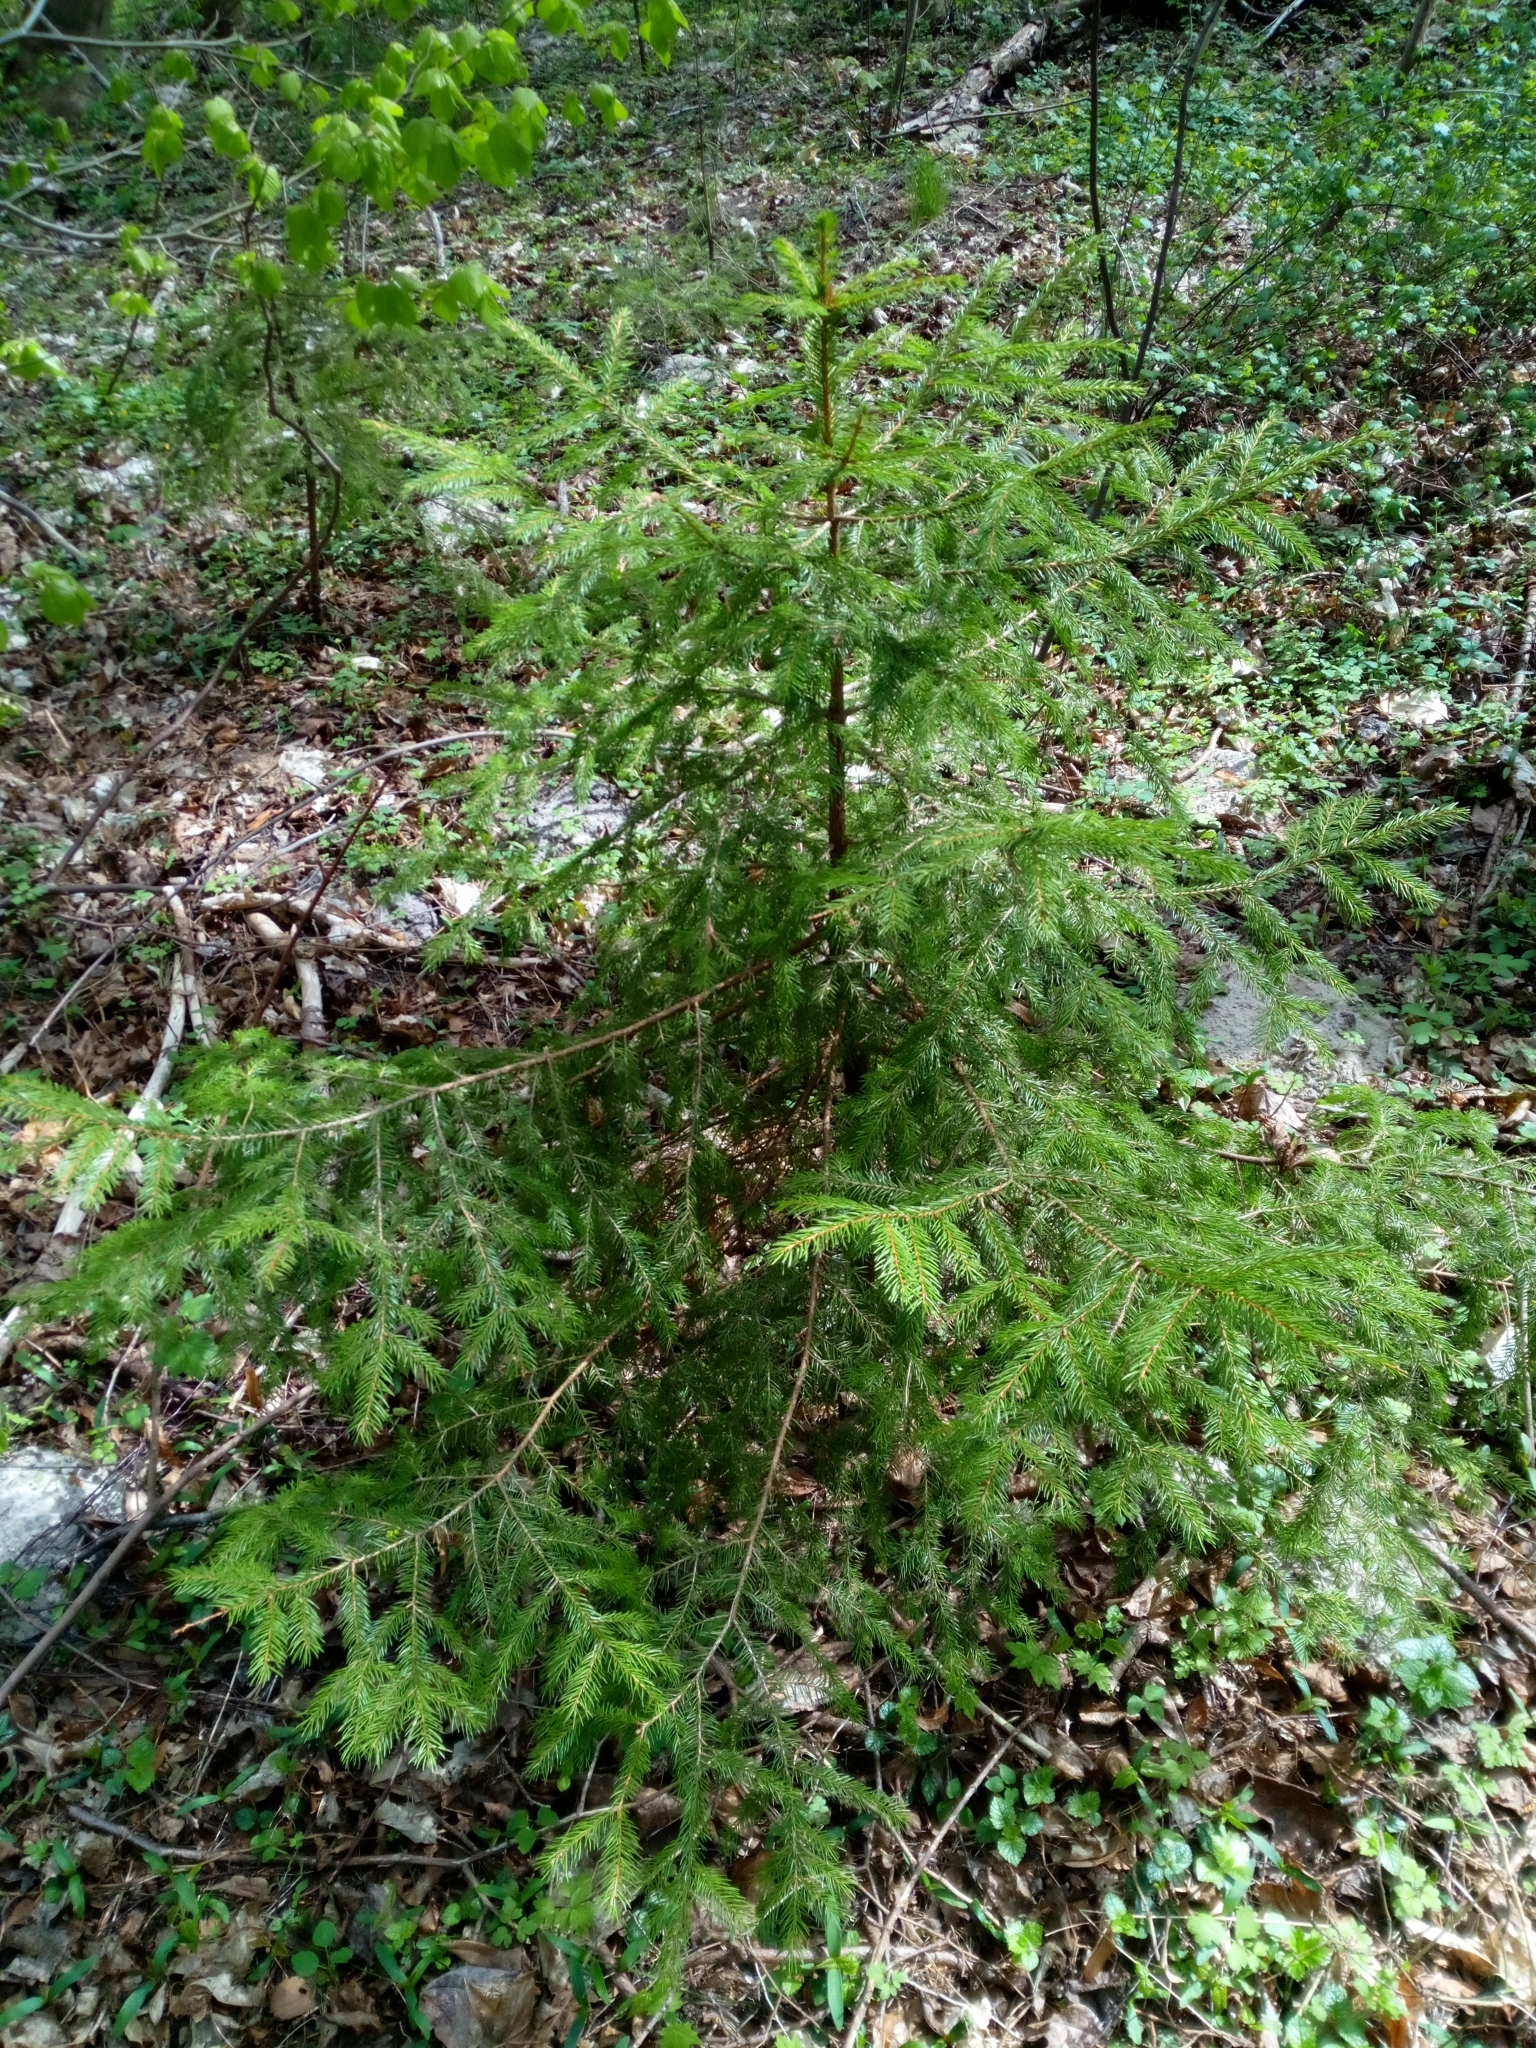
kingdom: Plantae
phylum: Tracheophyta
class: Pinopsida
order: Pinales
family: Pinaceae
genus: Picea
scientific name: Picea abies
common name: Norway spruce
